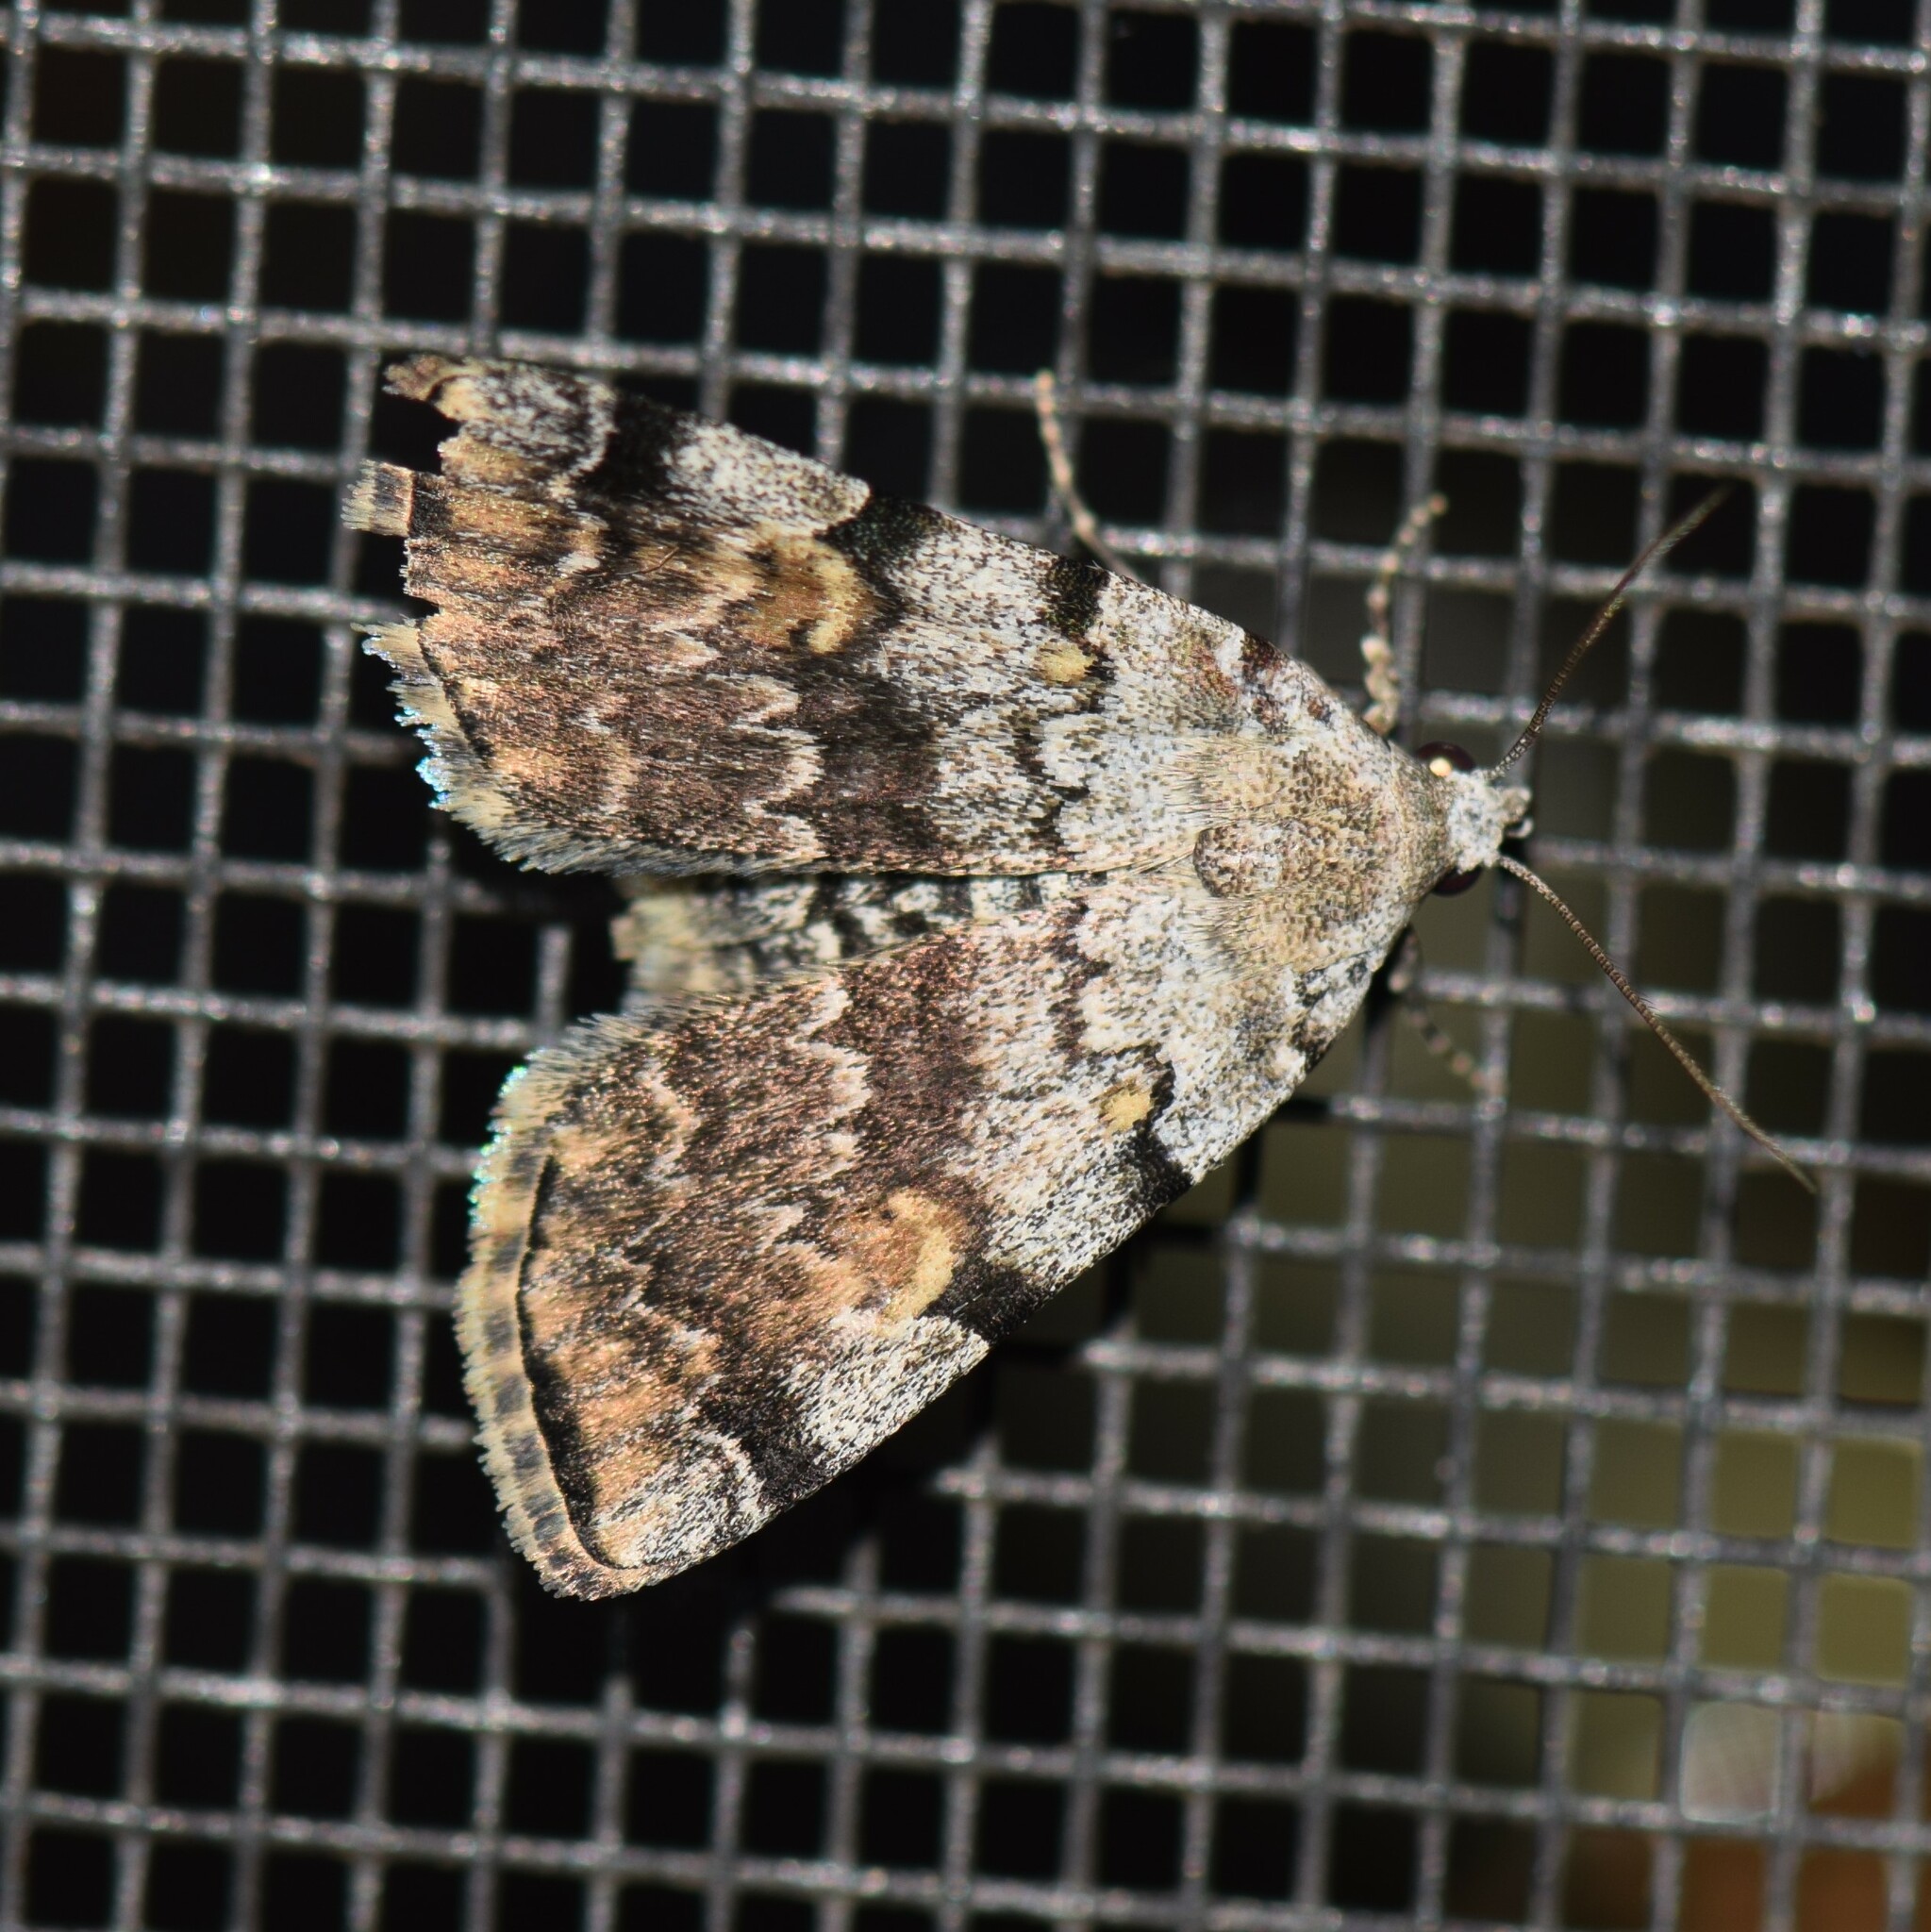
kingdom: Animalia
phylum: Arthropoda
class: Insecta
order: Lepidoptera
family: Erebidae
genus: Idia
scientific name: Idia americalis
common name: American idia moth
